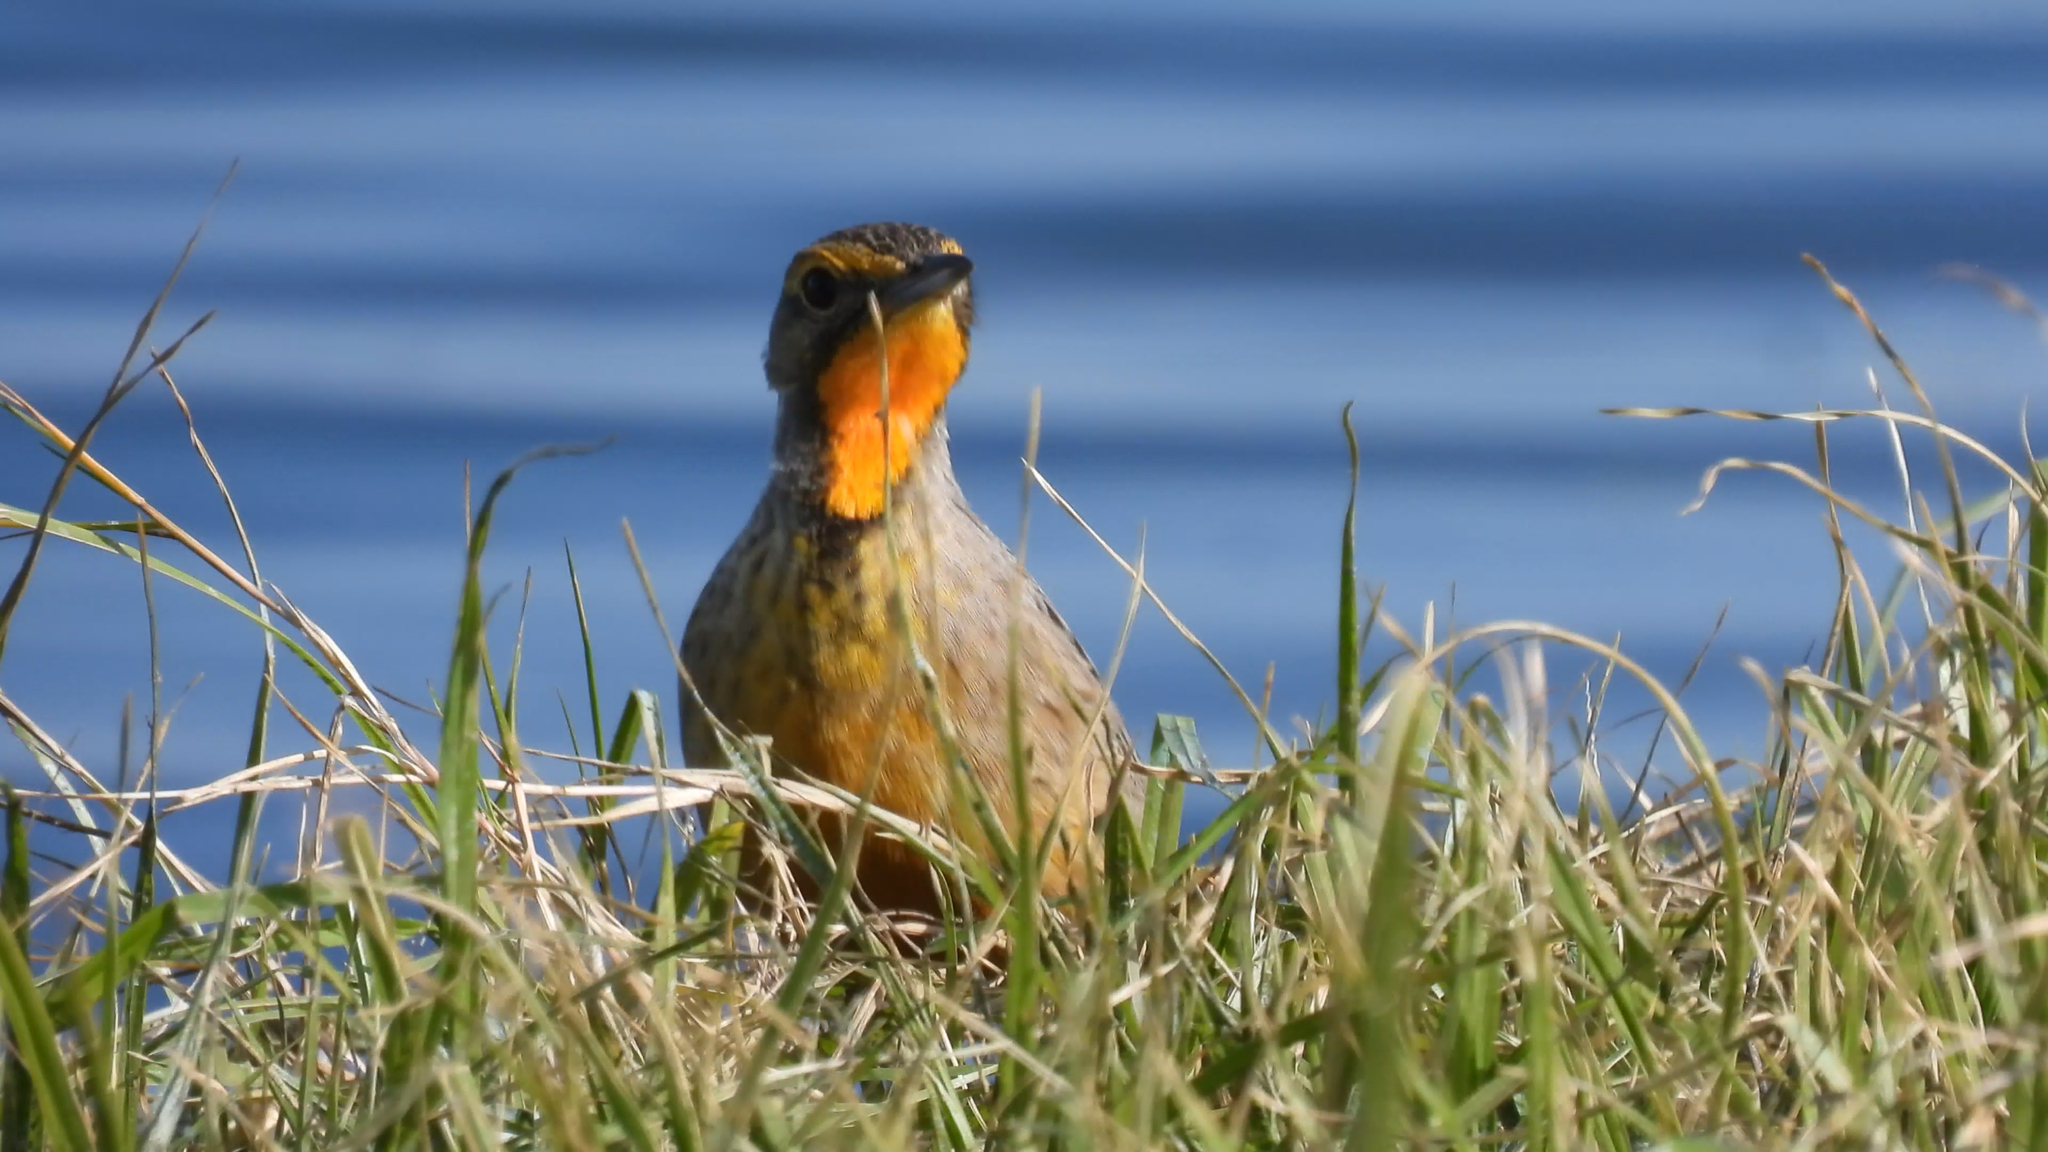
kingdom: Animalia
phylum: Chordata
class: Aves
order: Passeriformes
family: Motacillidae
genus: Macronyx
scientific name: Macronyx capensis
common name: Cape longclaw
